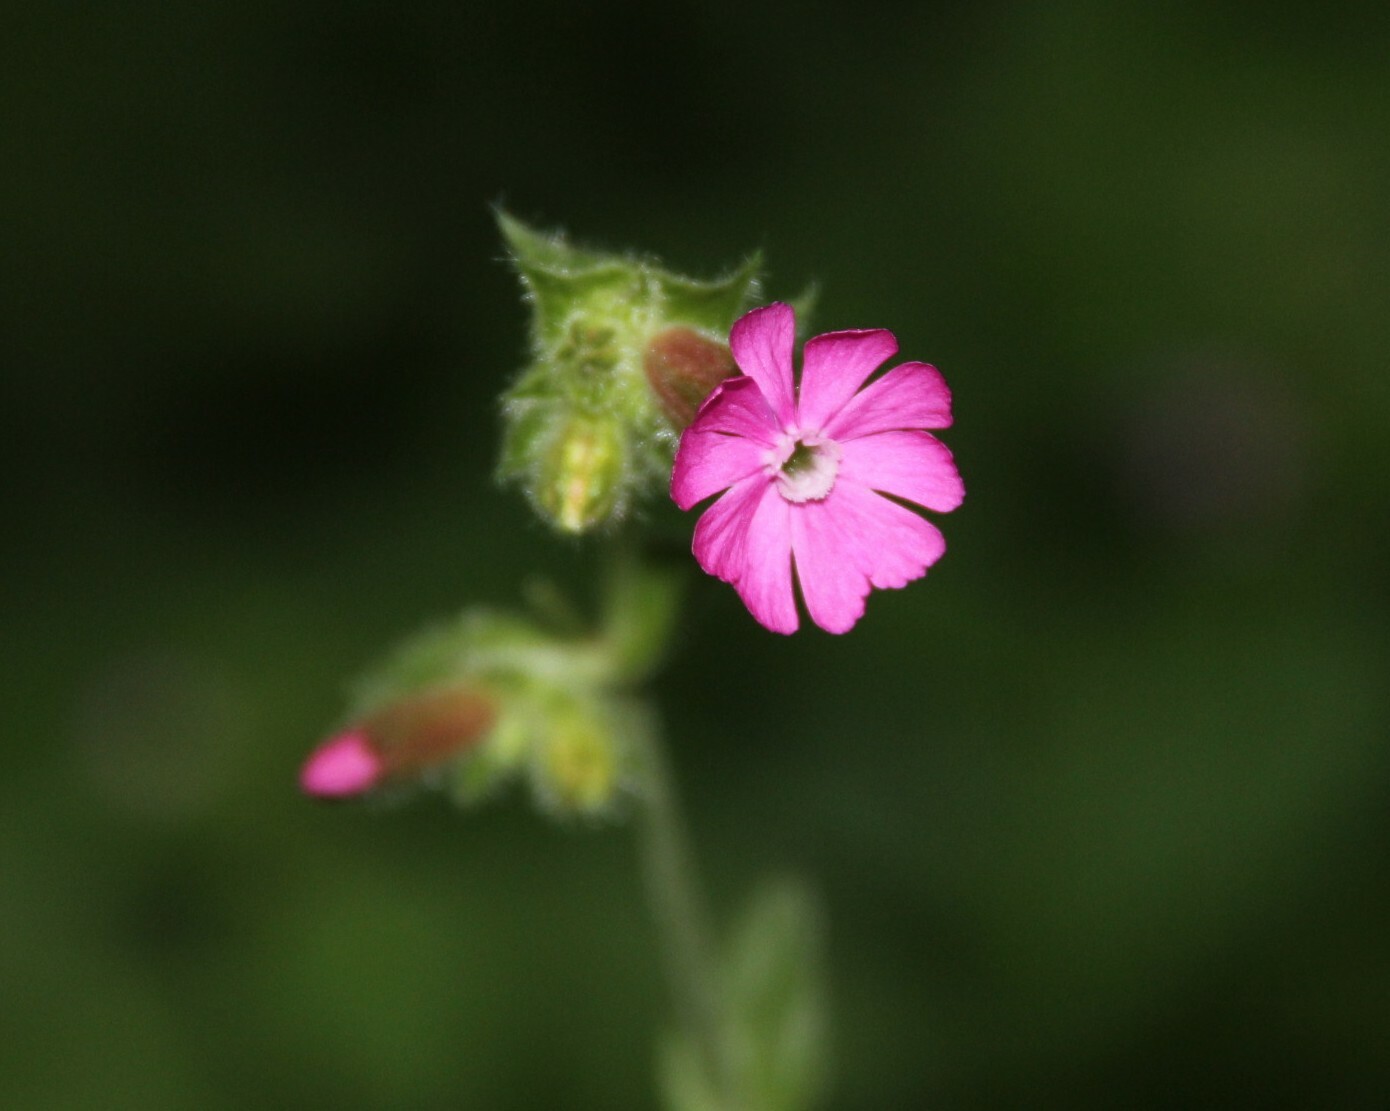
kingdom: Plantae
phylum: Tracheophyta
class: Magnoliopsida
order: Caryophyllales
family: Caryophyllaceae
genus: Silene
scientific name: Silene dioica
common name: Red campion
